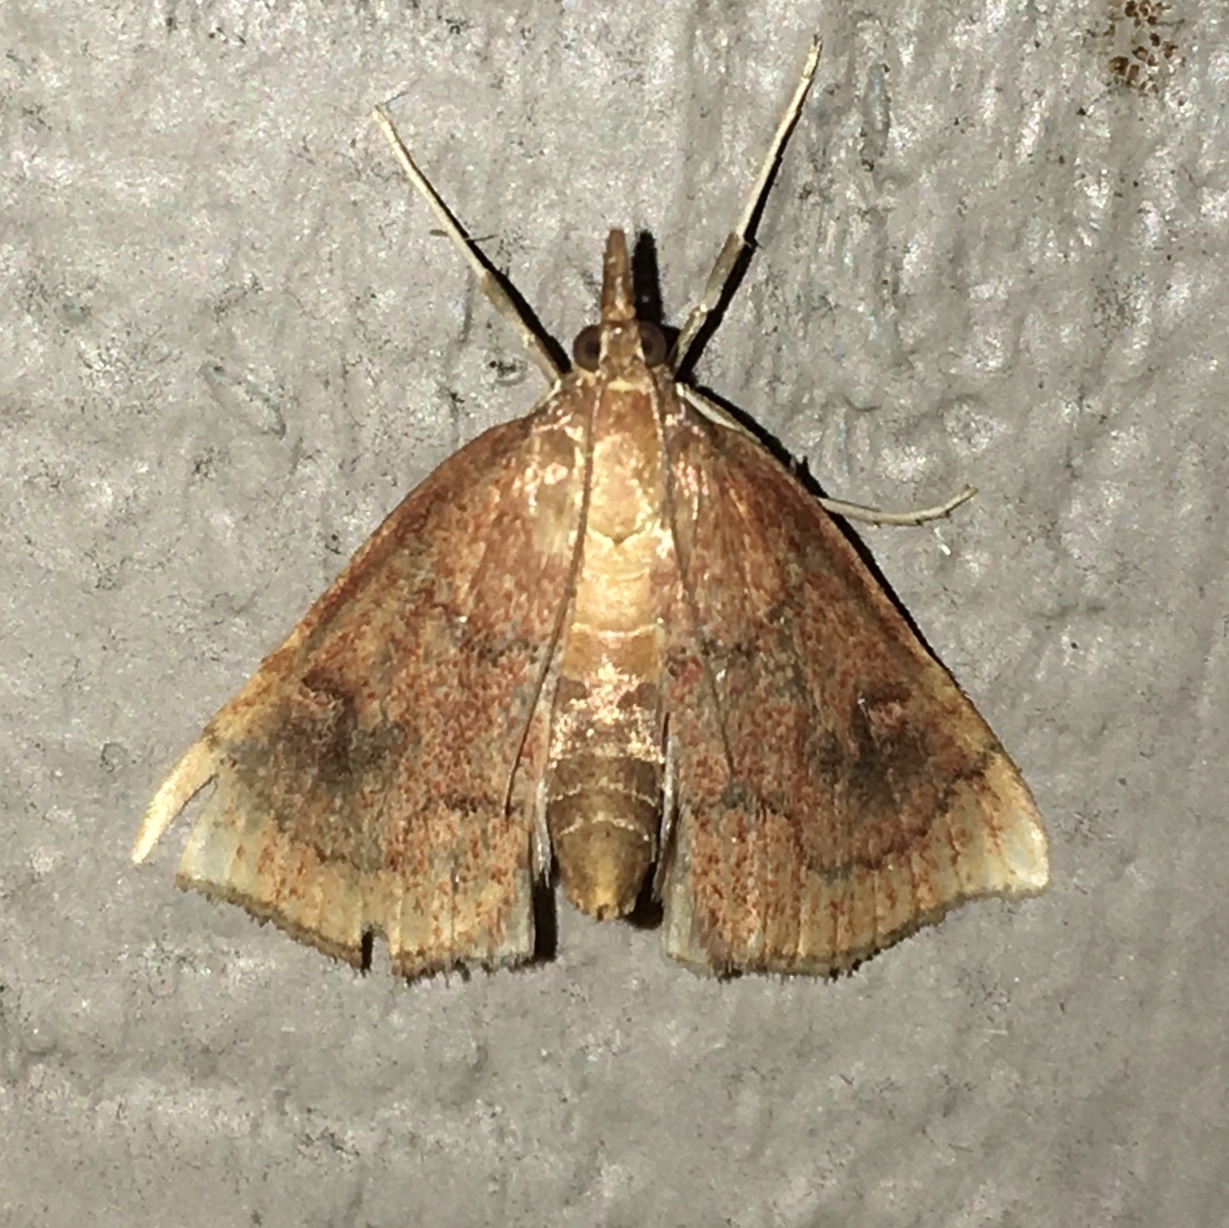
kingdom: Animalia
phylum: Arthropoda
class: Insecta
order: Lepidoptera
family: Crambidae
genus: Fumibotys
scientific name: Fumibotys fumalis
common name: Mint root borer moth
